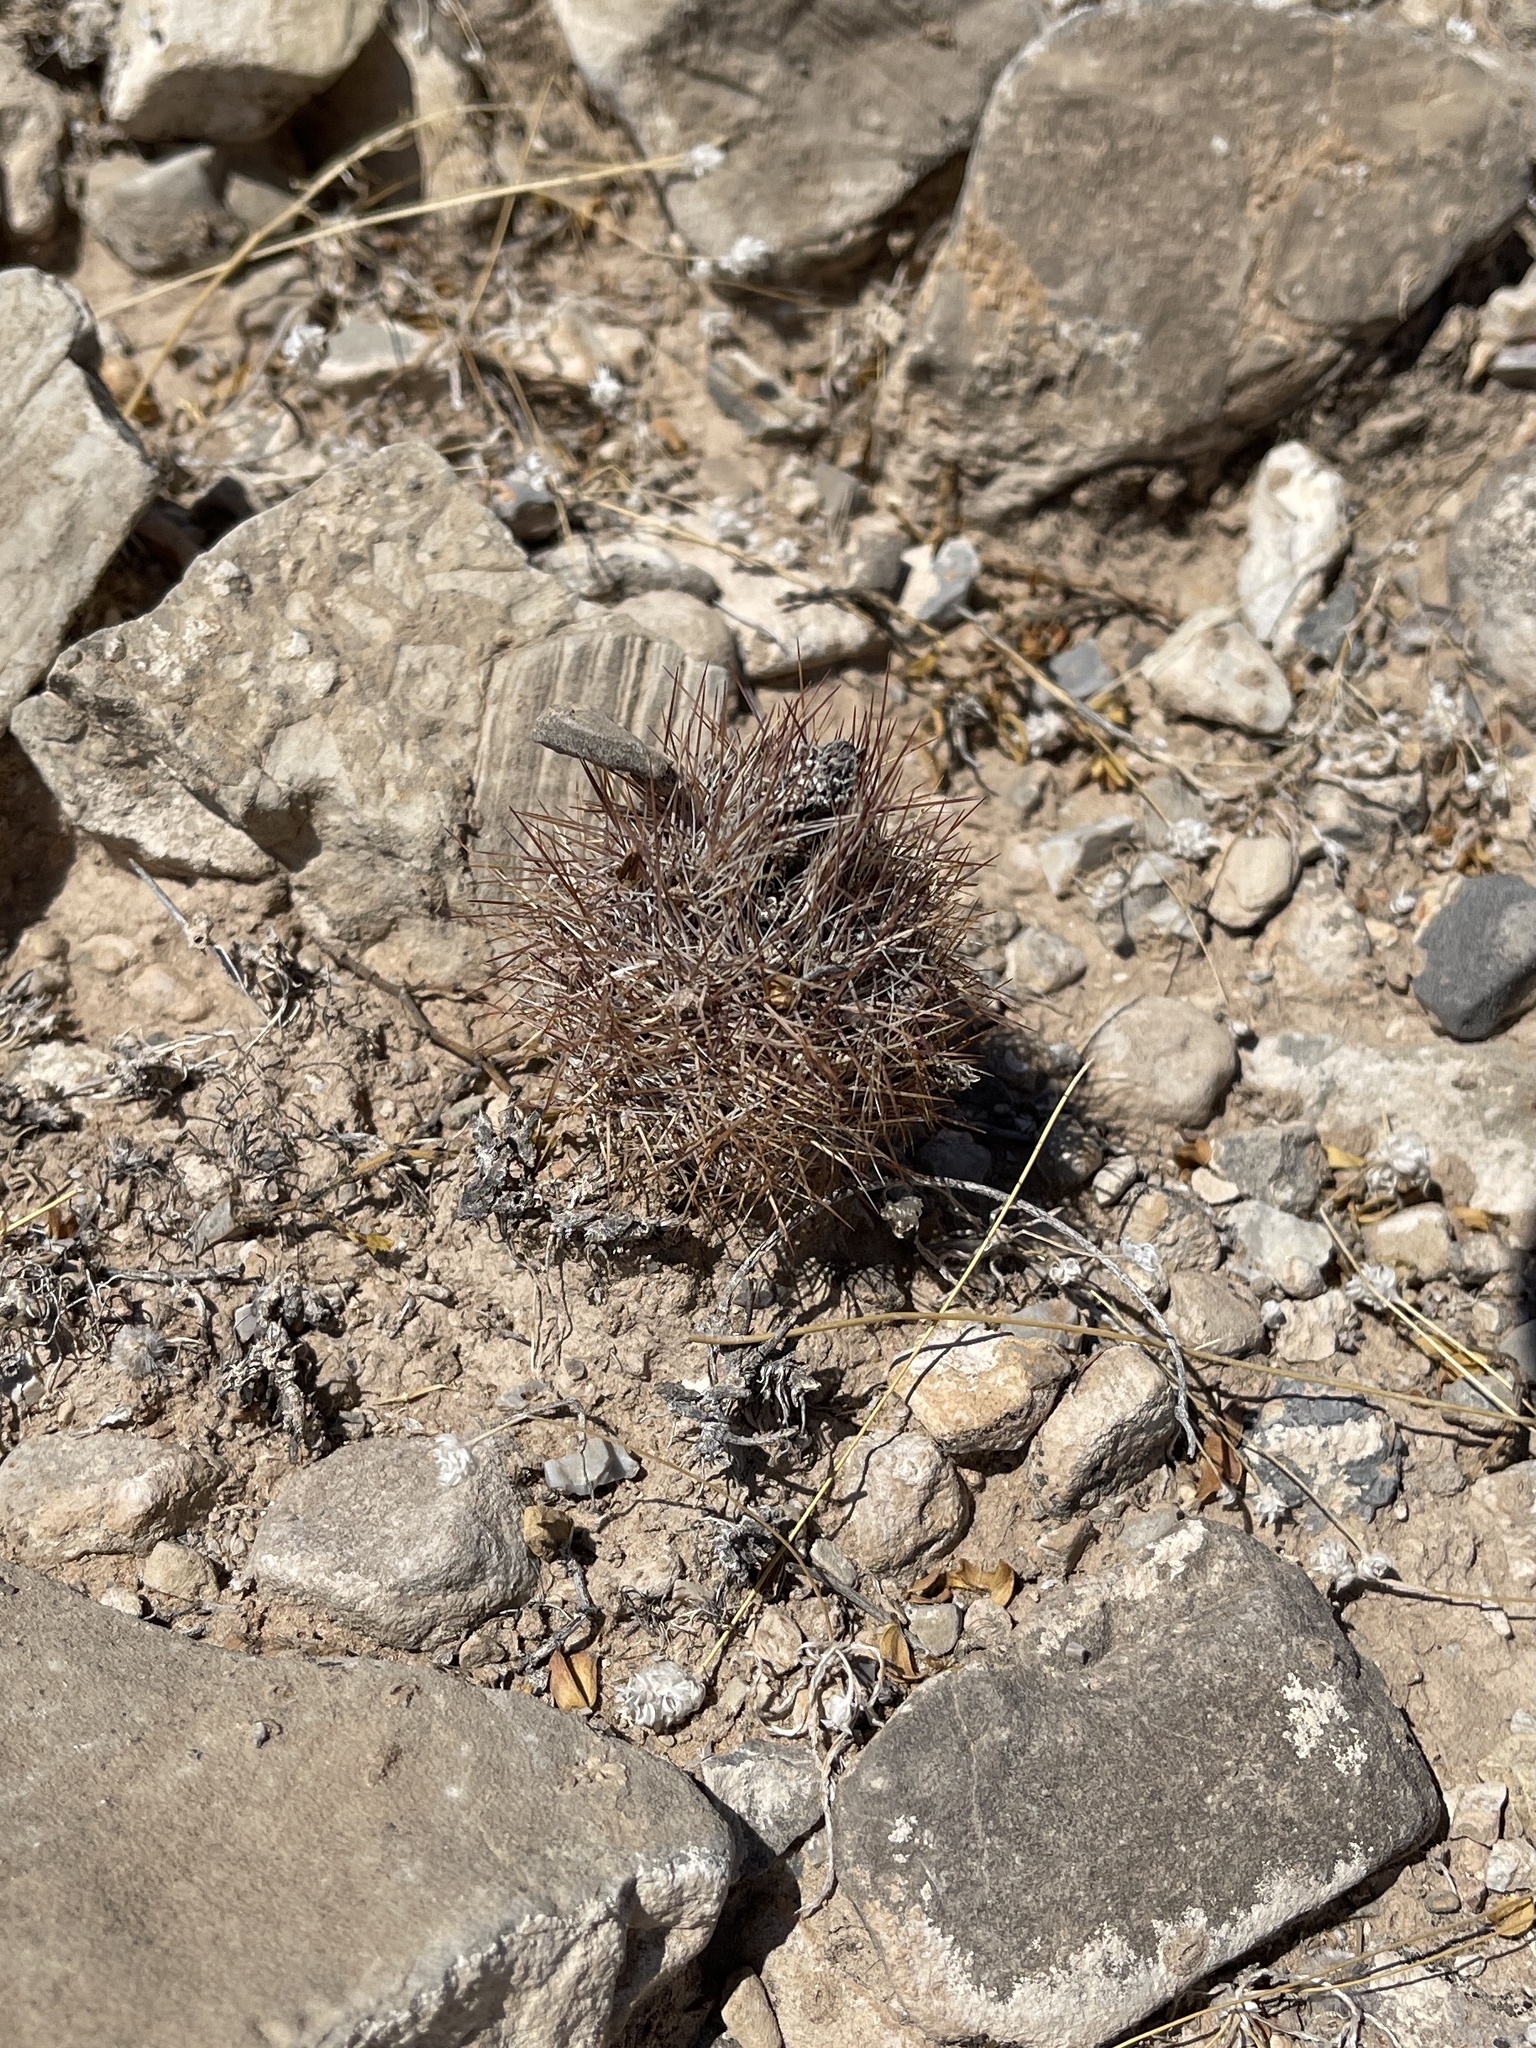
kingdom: Plantae
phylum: Tracheophyta
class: Magnoliopsida
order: Caryophyllales
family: Cactaceae
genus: Sclerocactus
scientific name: Sclerocactus intertextus
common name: White fish-hook cactus
